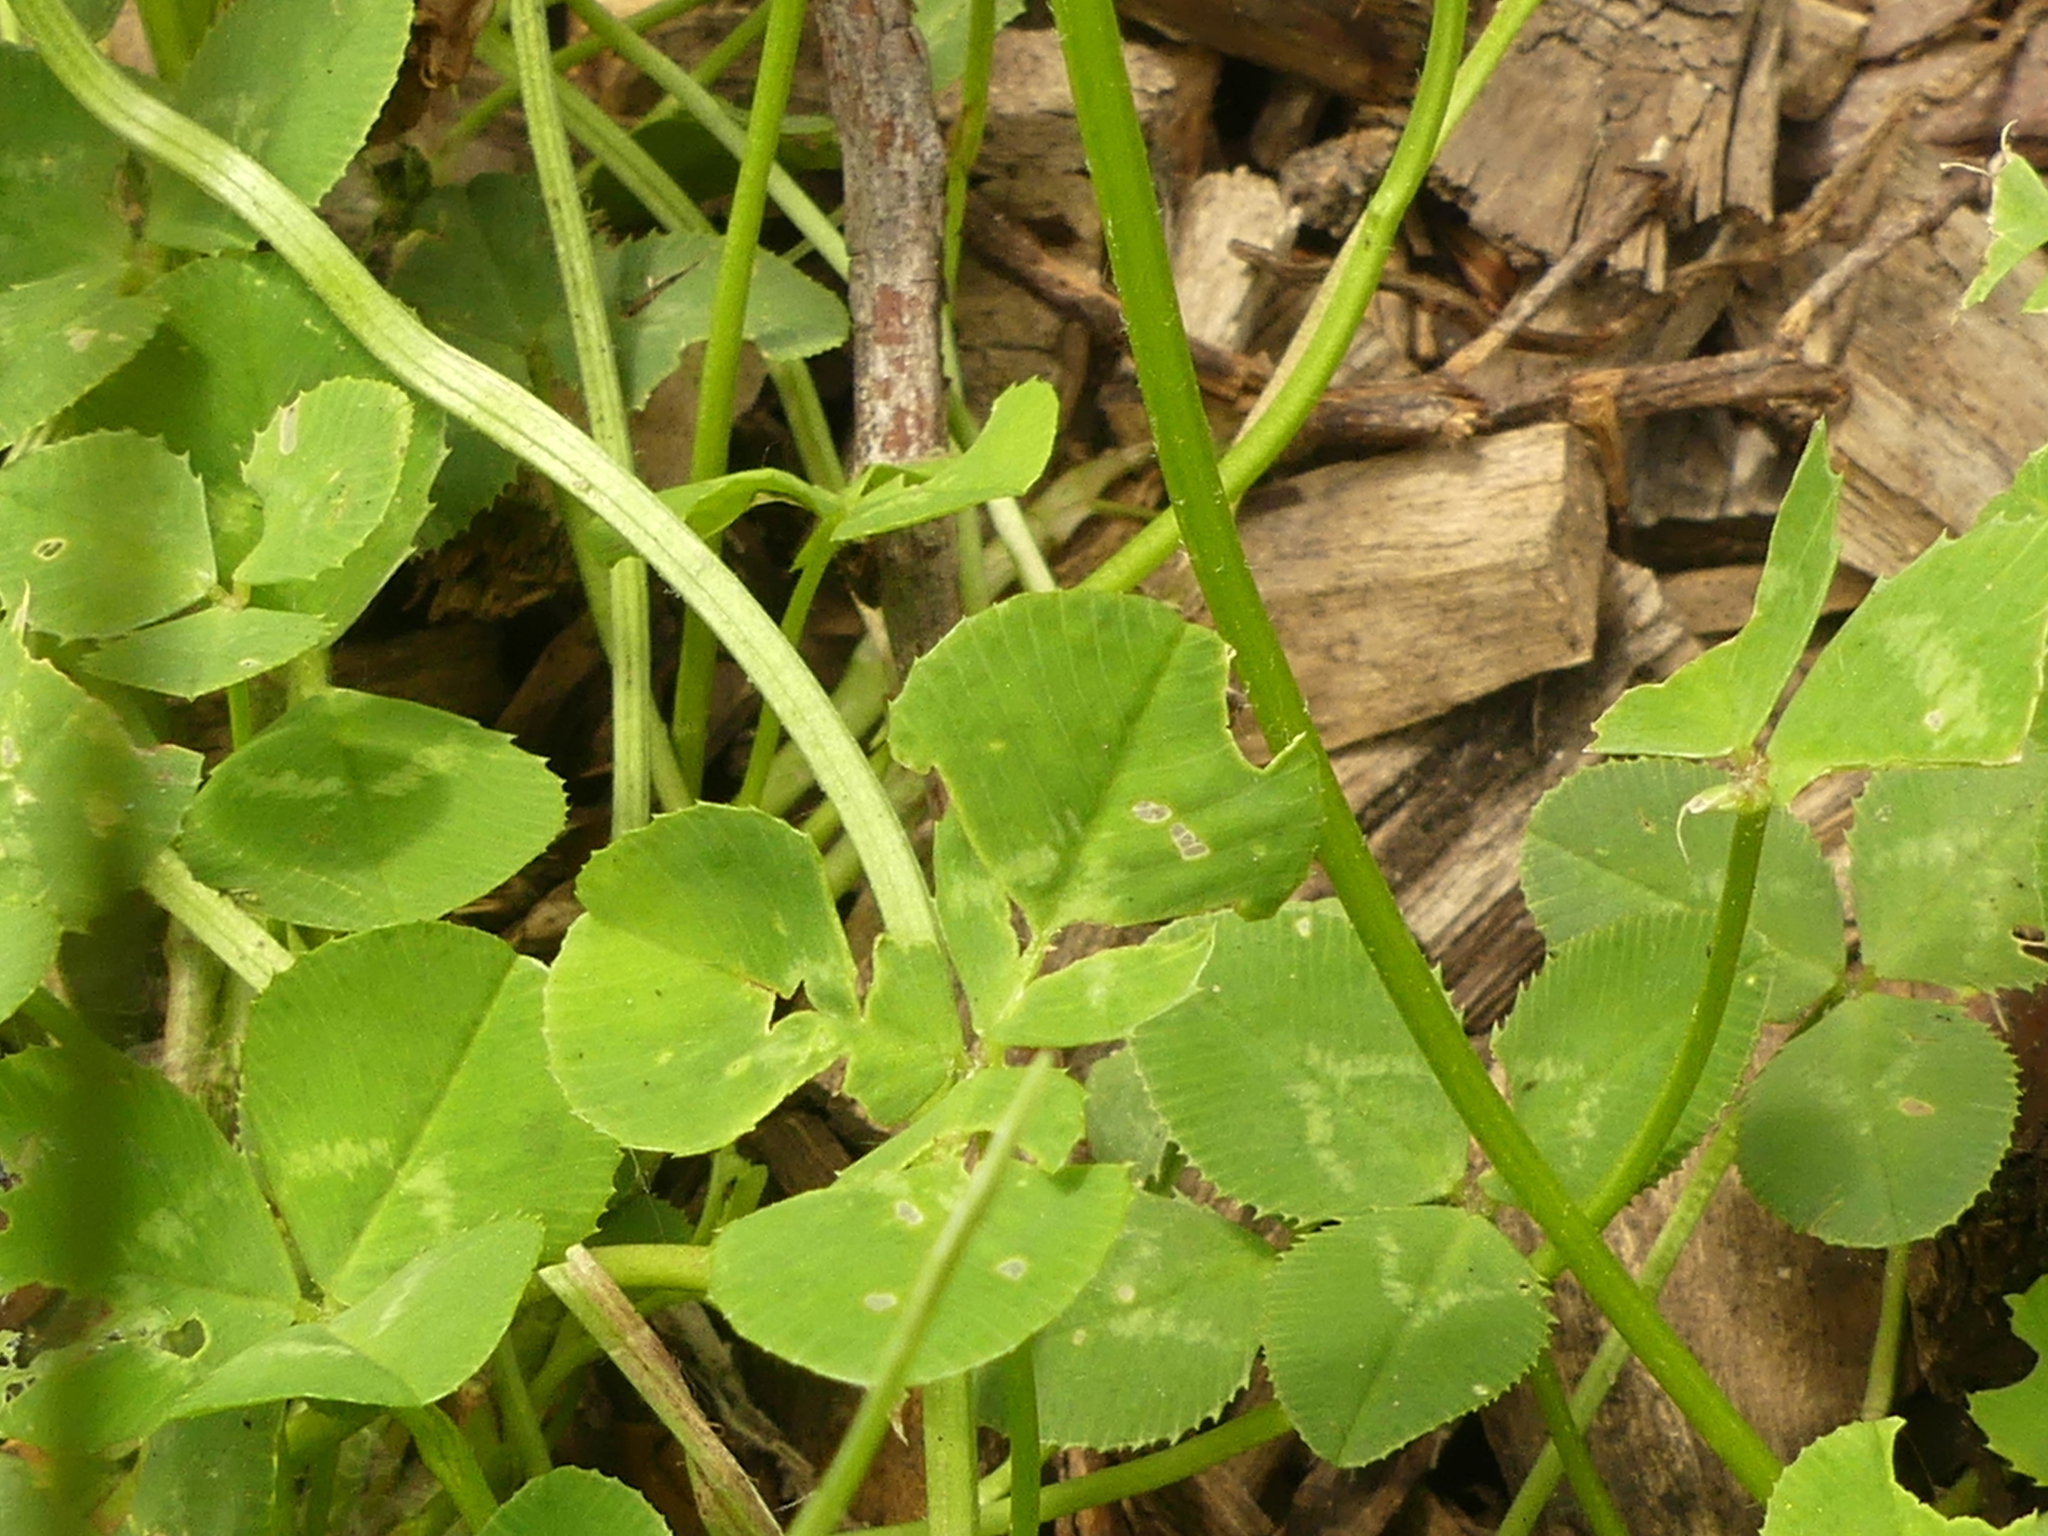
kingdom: Plantae
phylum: Tracheophyta
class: Magnoliopsida
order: Fabales
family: Fabaceae
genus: Trifolium
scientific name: Trifolium repens
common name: White clover
